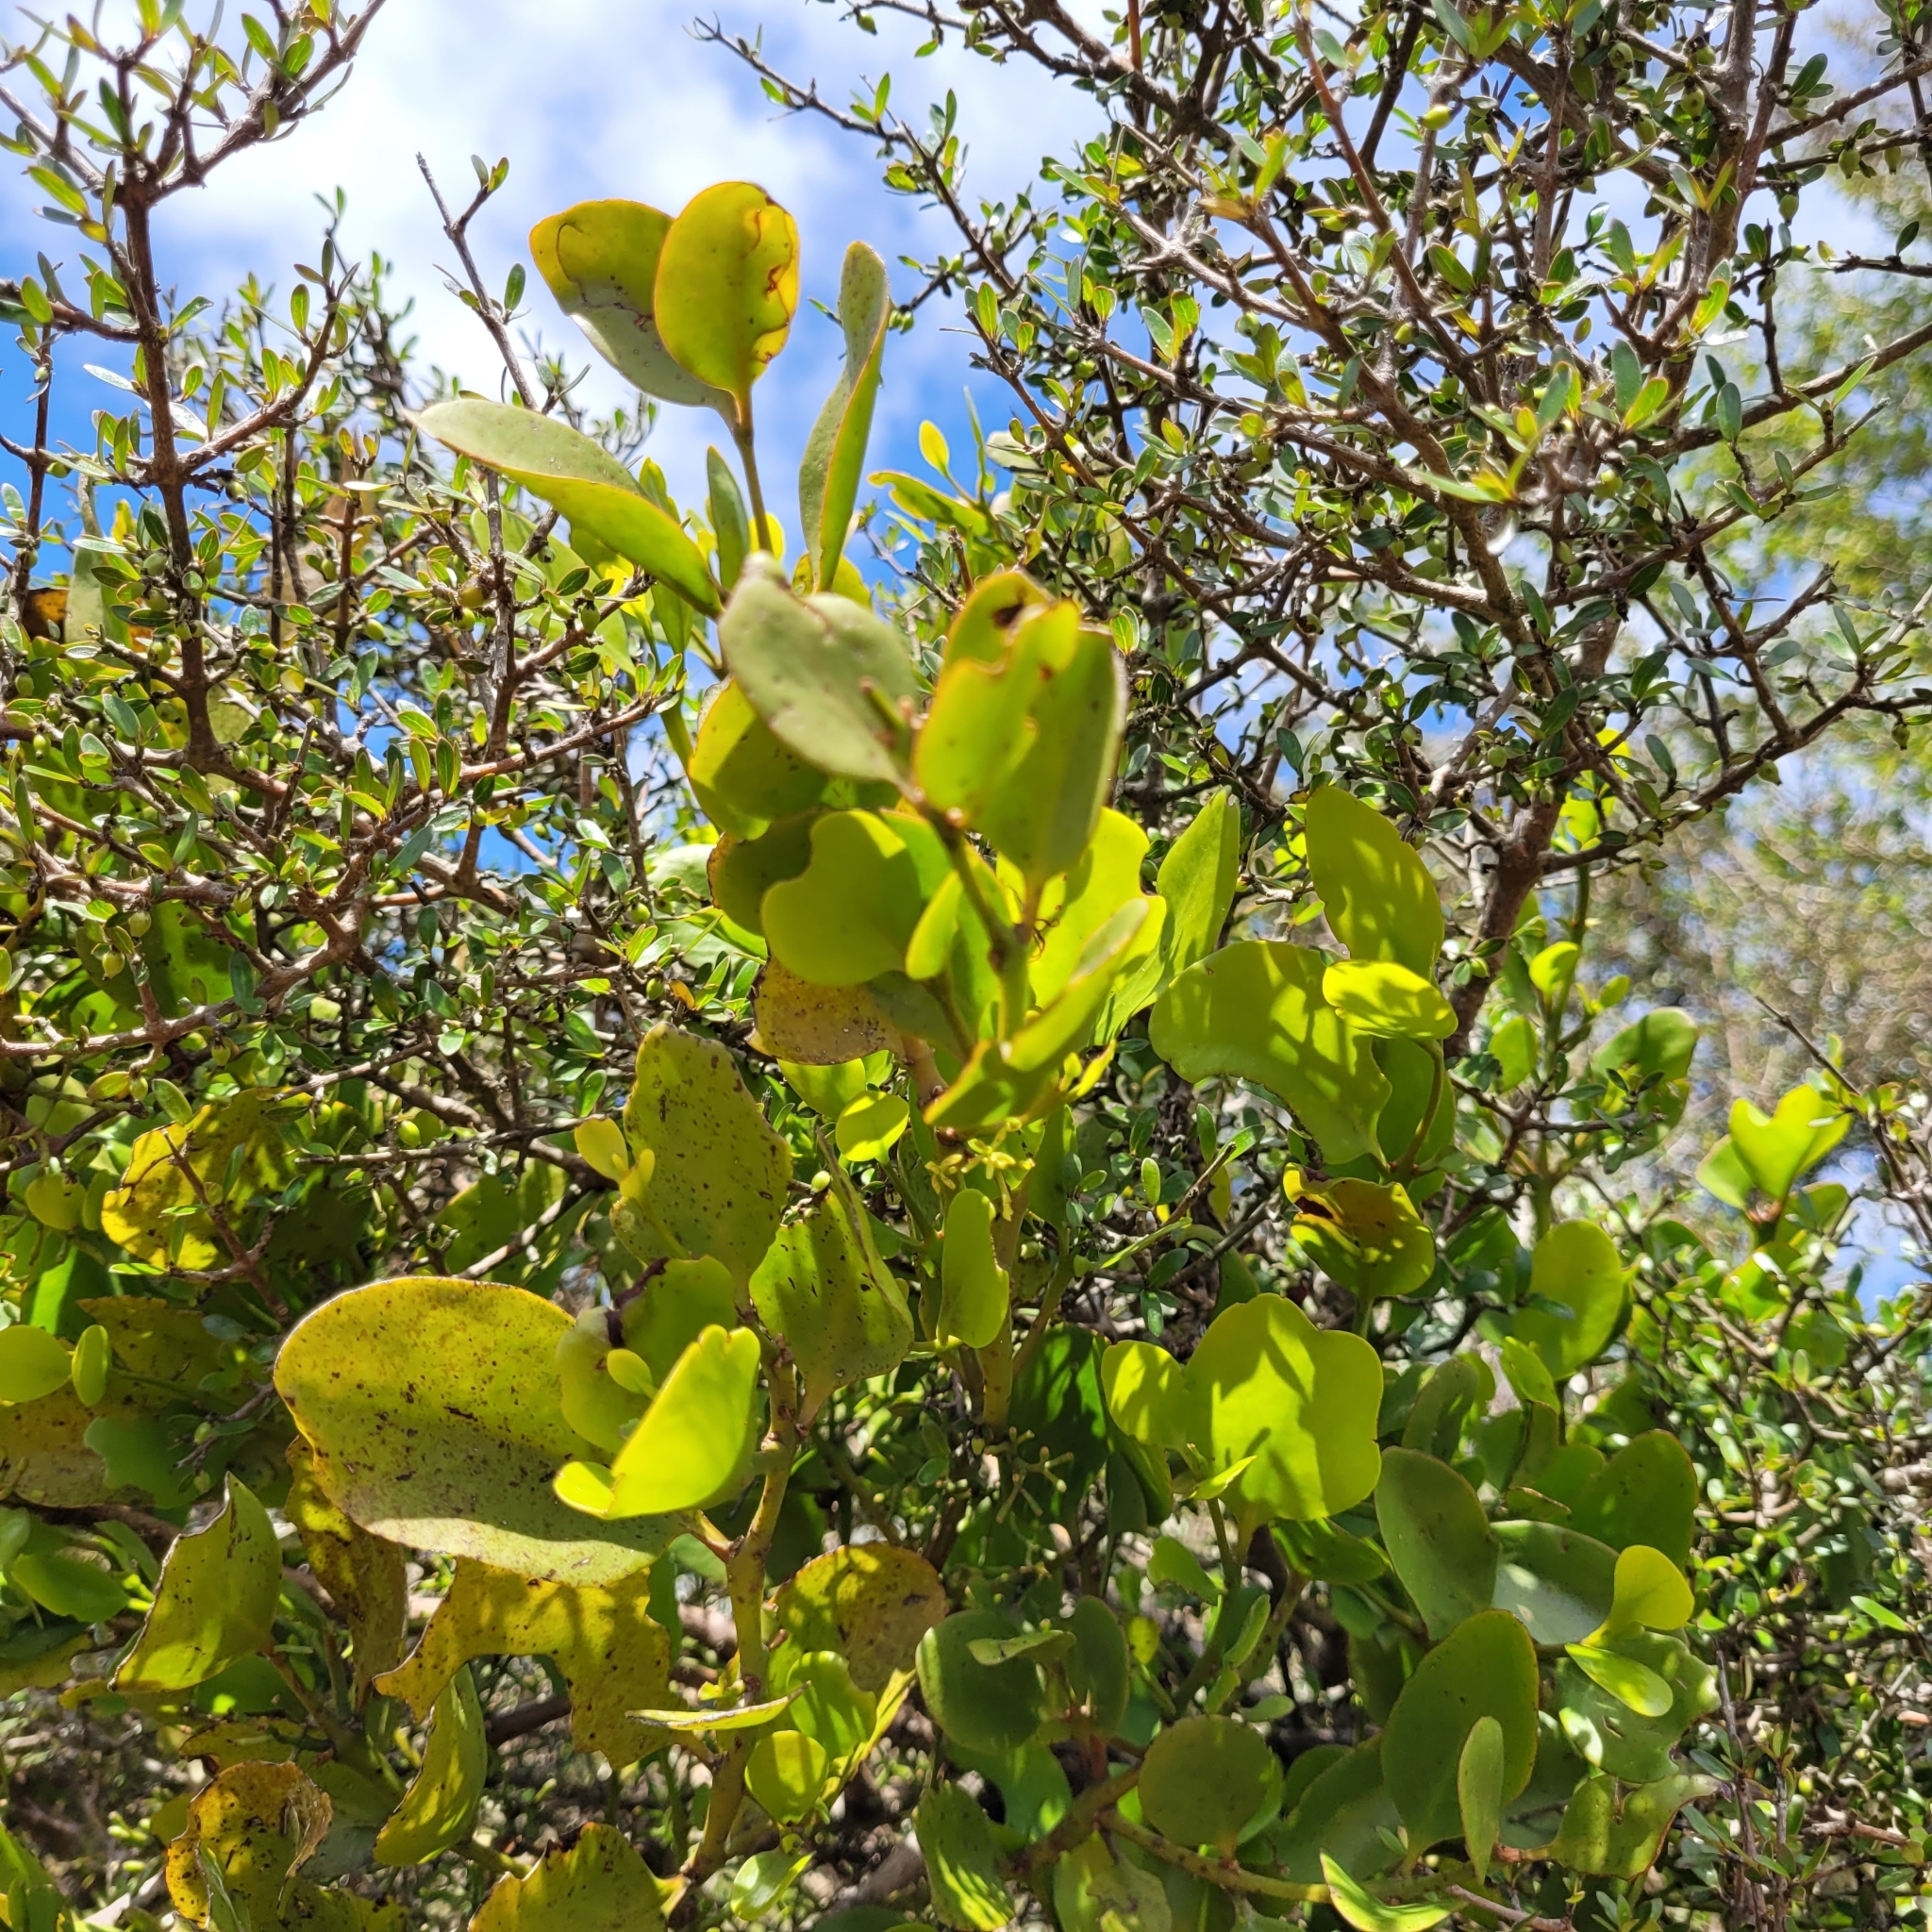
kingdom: Plantae
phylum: Tracheophyta
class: Magnoliopsida
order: Santalales
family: Loranthaceae
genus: Ileostylus
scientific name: Ileostylus micranthus
